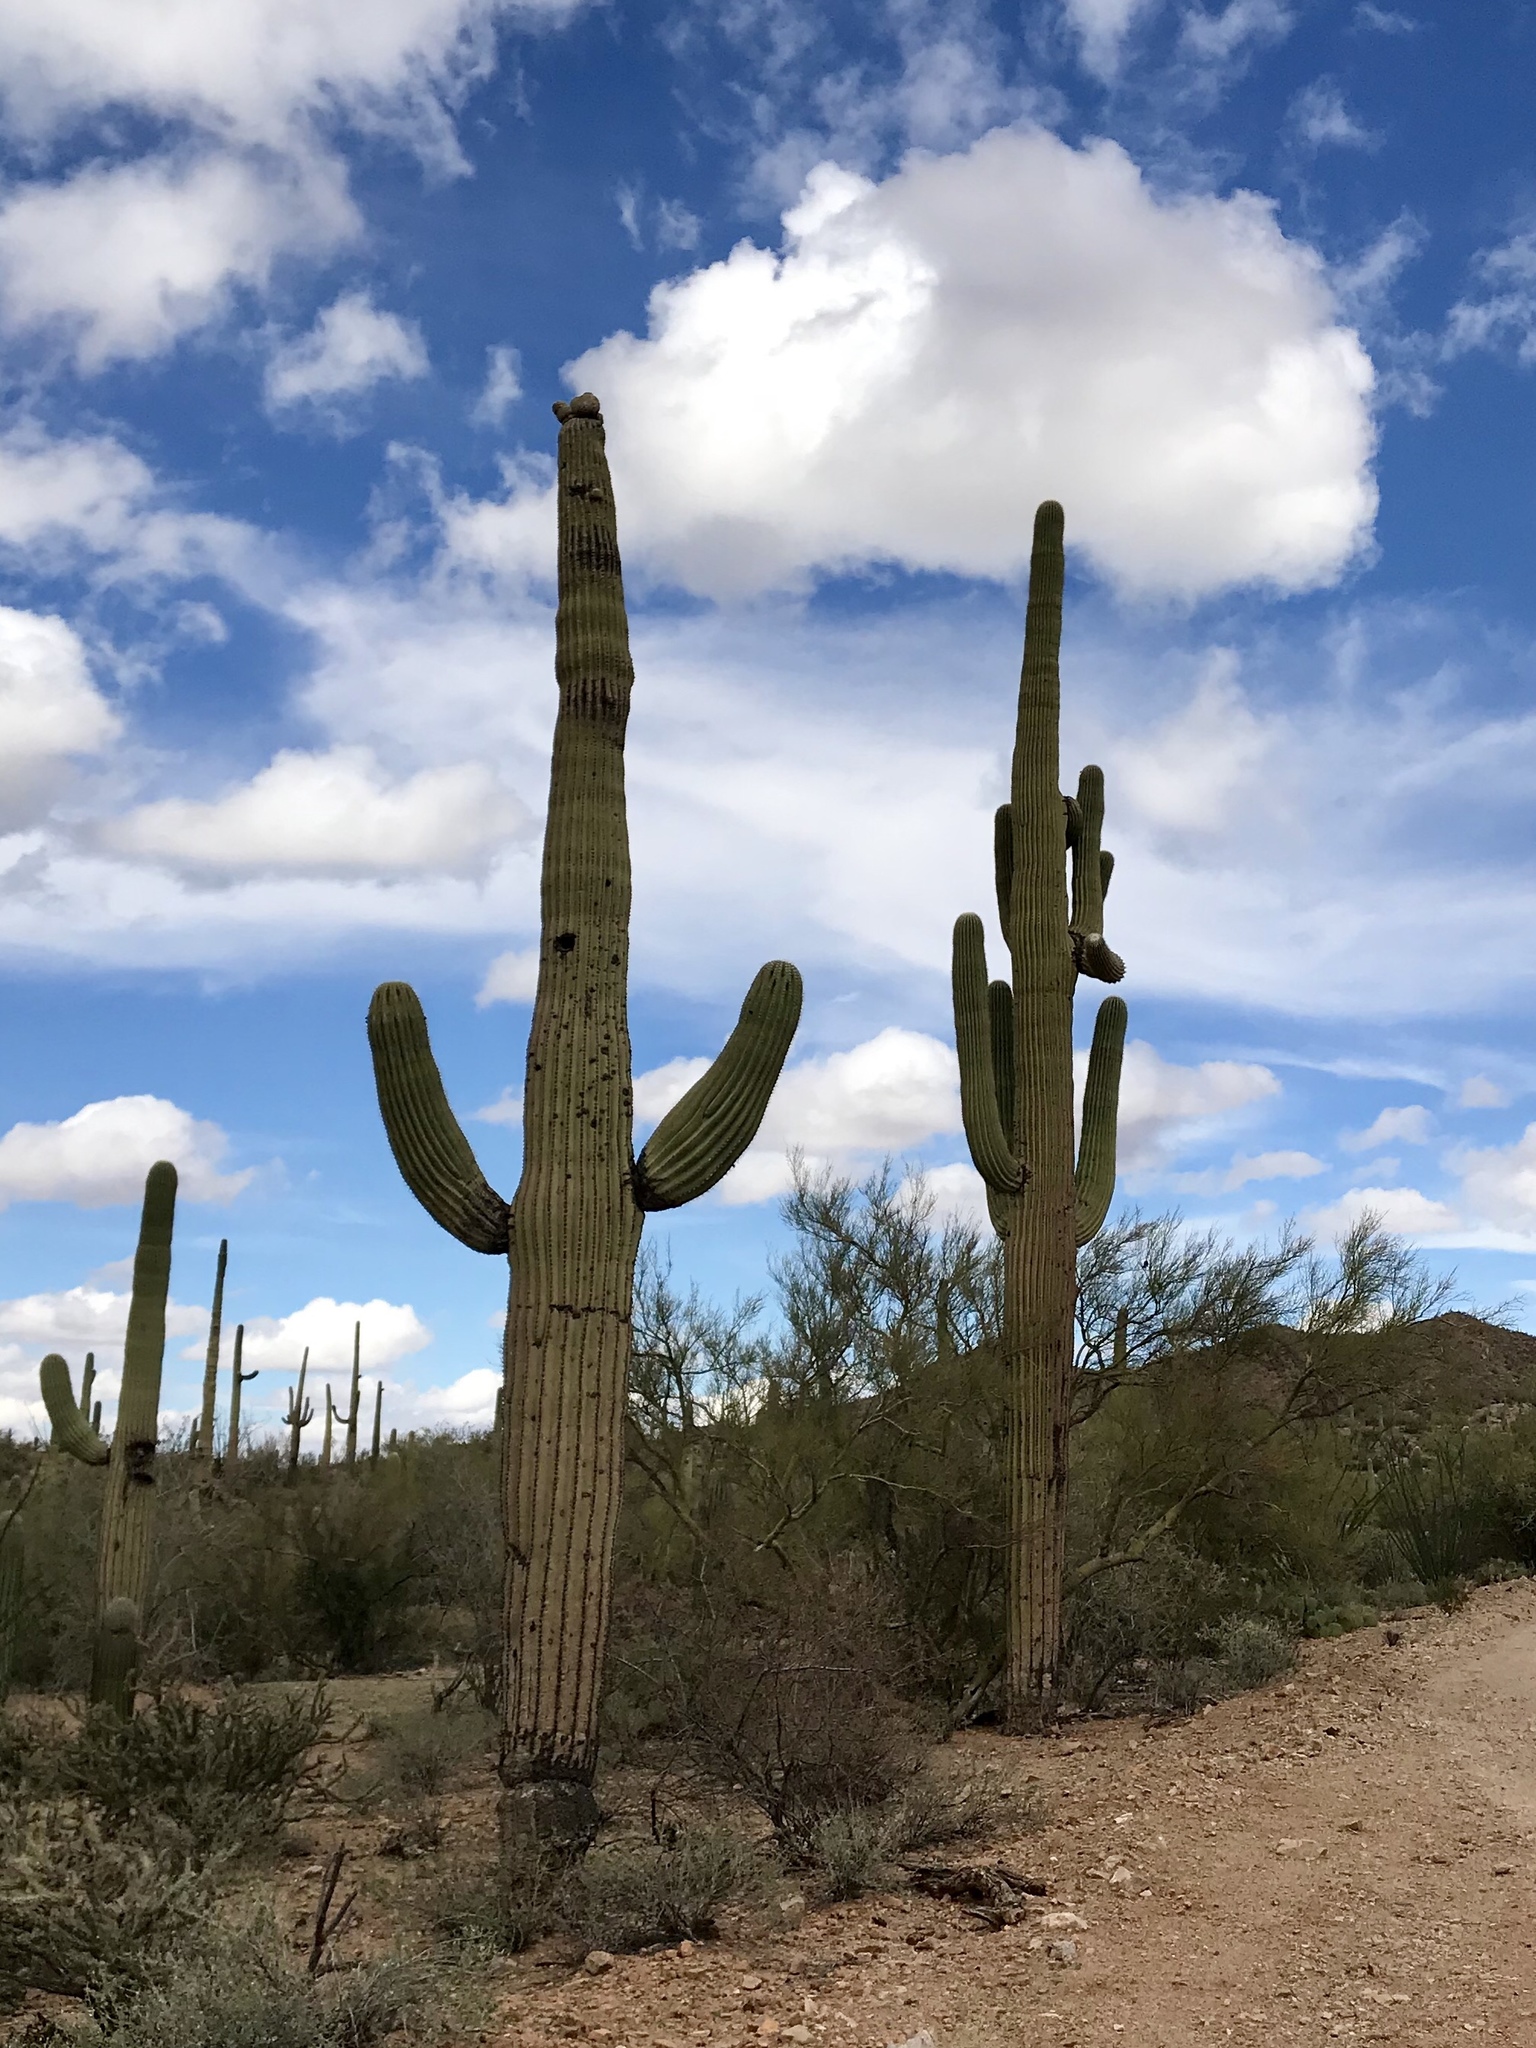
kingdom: Plantae
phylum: Tracheophyta
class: Magnoliopsida
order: Caryophyllales
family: Cactaceae
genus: Carnegiea
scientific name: Carnegiea gigantea
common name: Saguaro
